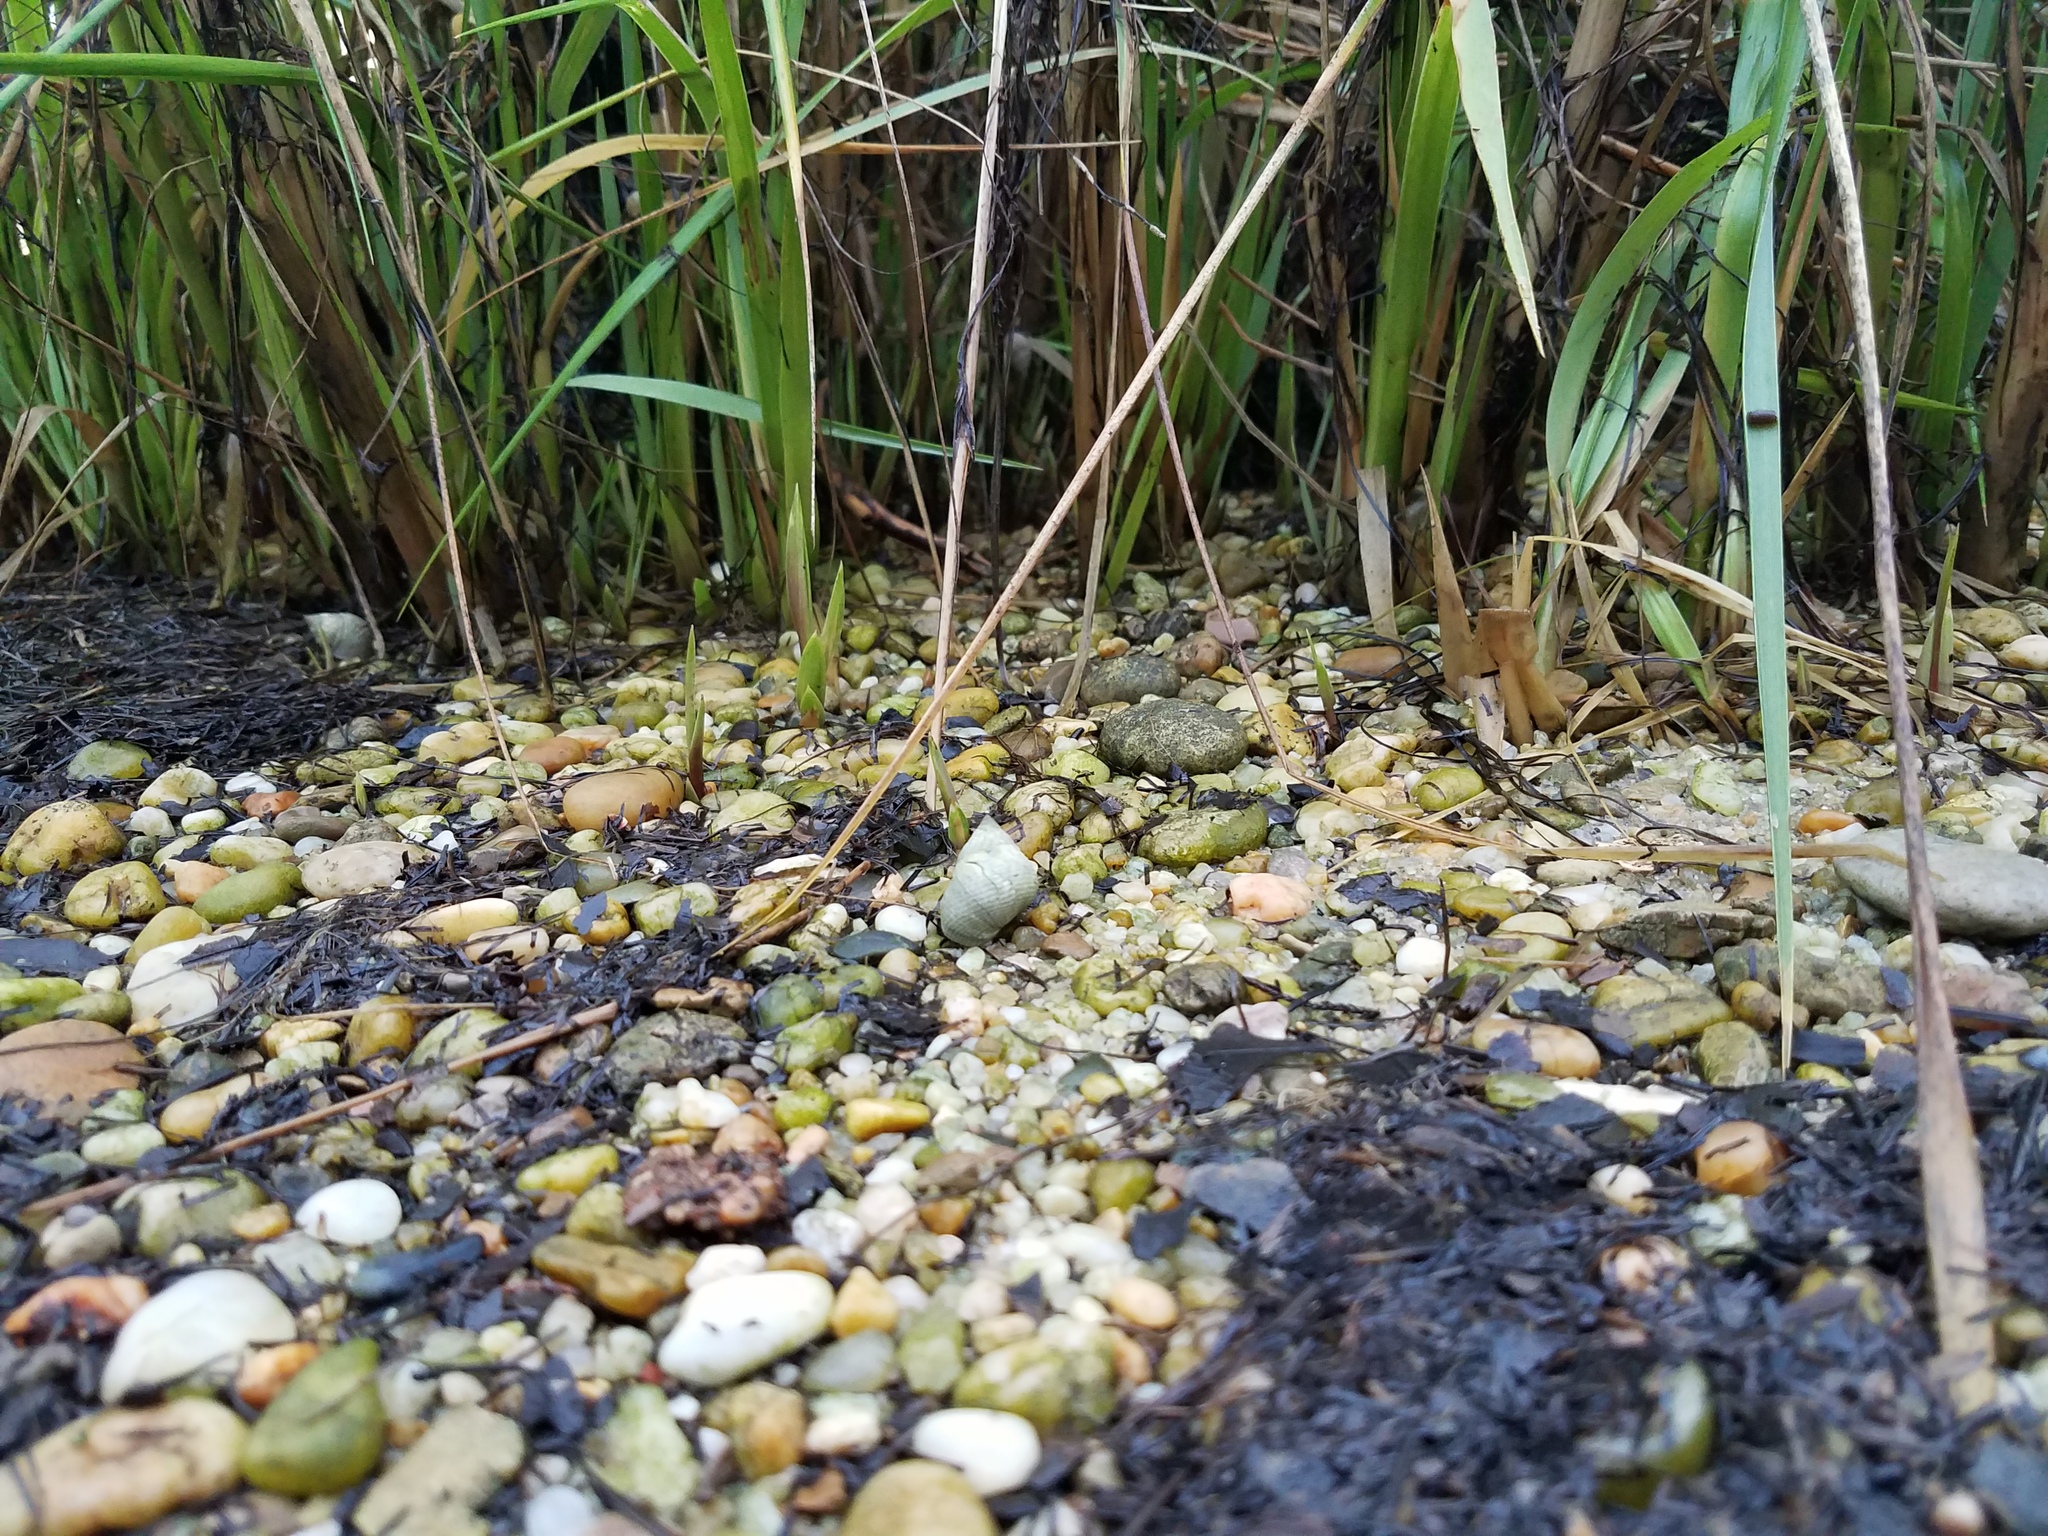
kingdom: Animalia
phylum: Mollusca
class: Gastropoda
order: Littorinimorpha
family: Littorinidae
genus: Littoraria
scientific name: Littoraria irrorata
